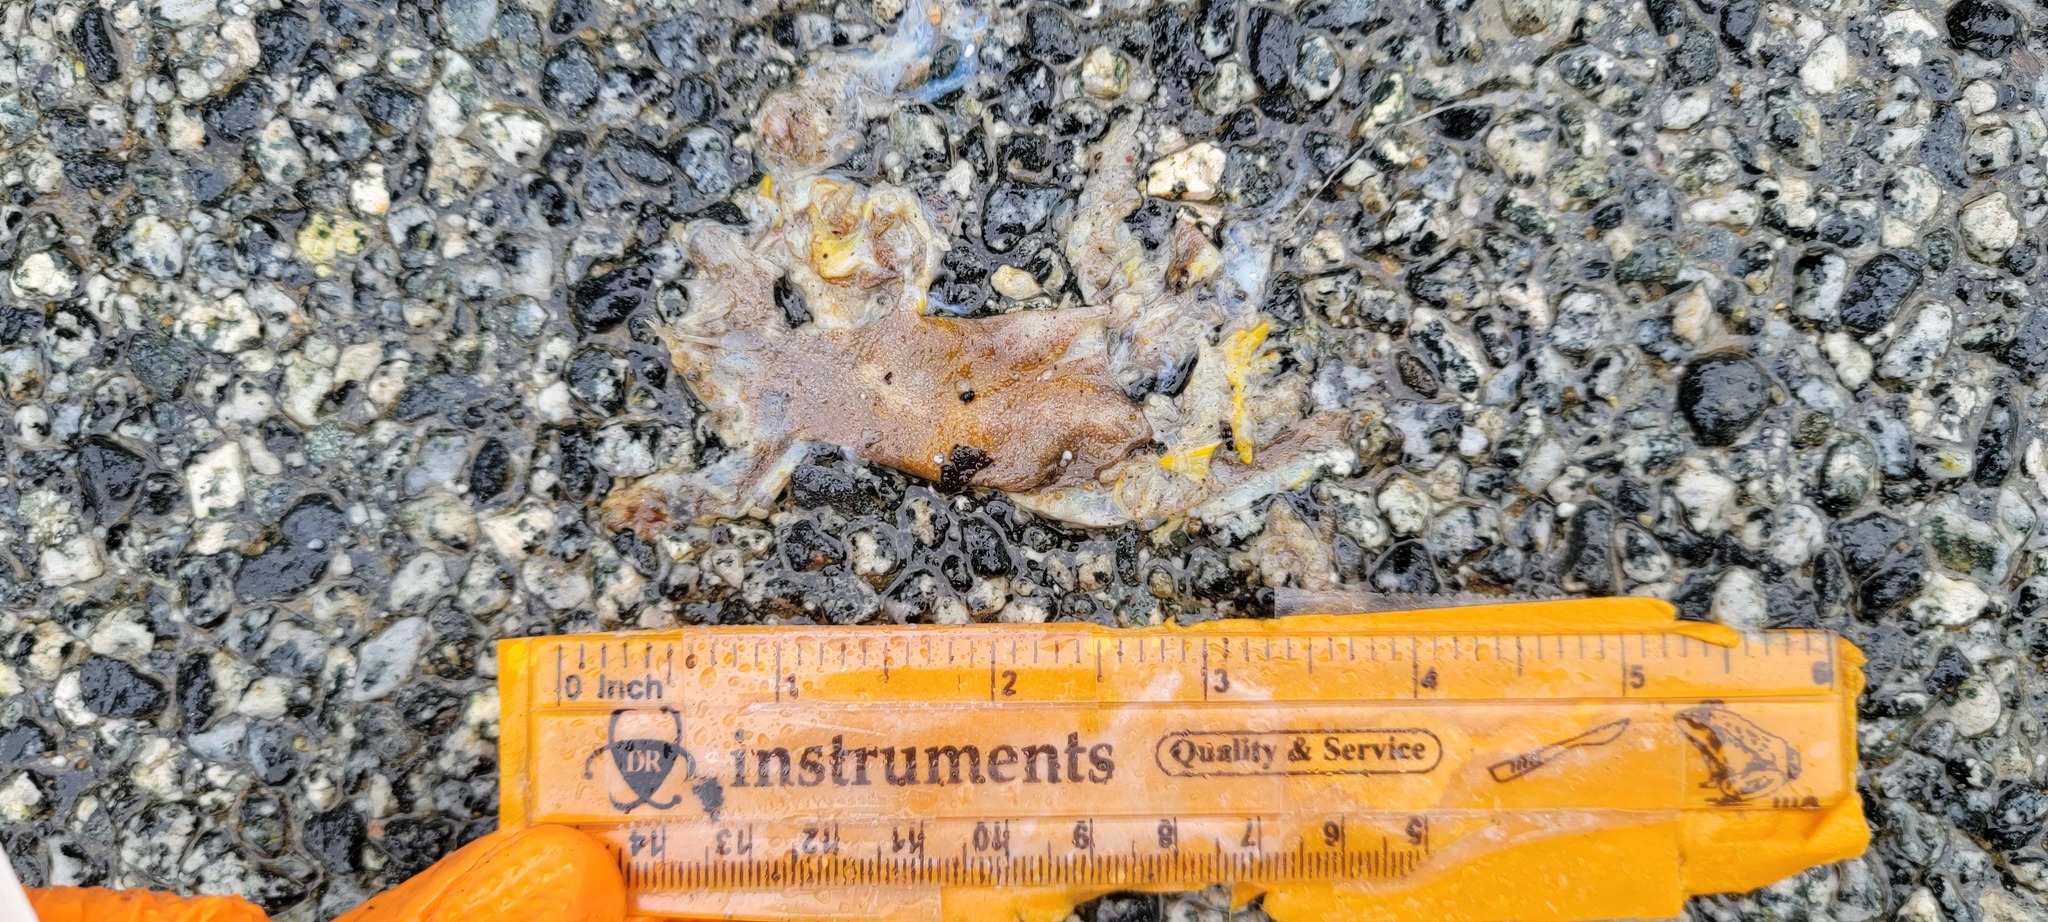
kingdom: Animalia
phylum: Chordata
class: Amphibia
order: Caudata
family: Salamandridae
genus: Taricha
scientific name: Taricha
